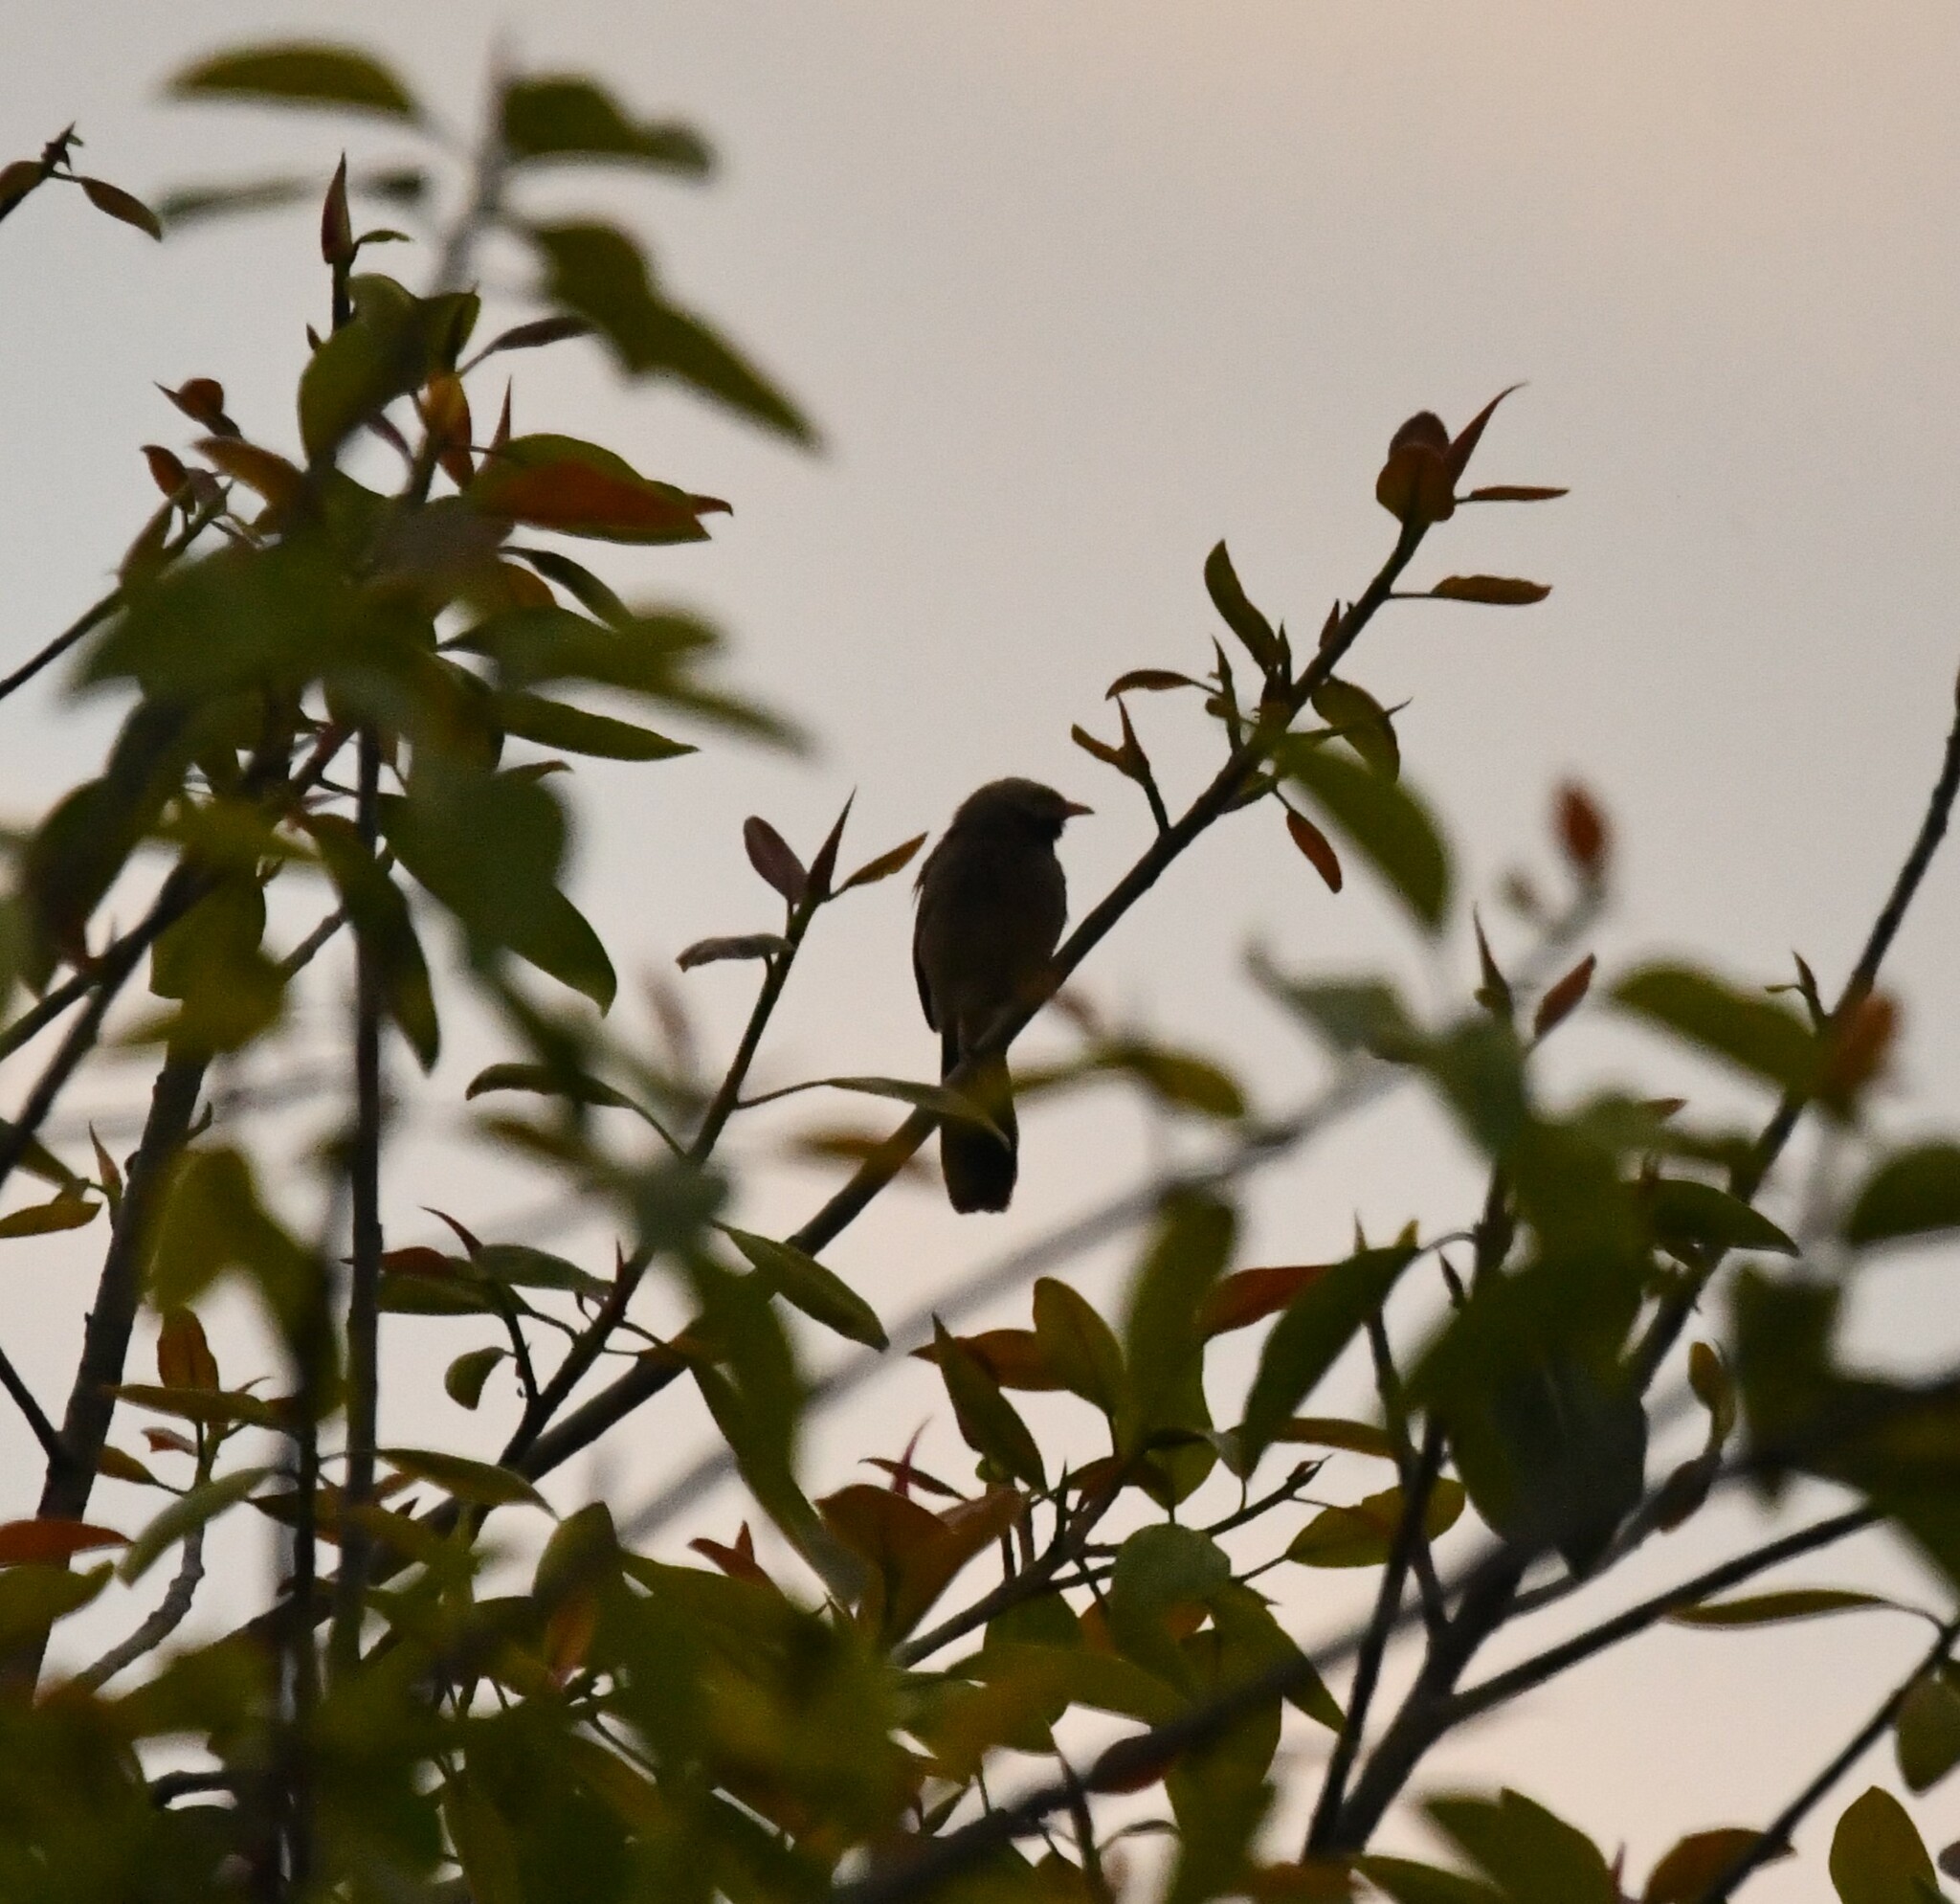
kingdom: Animalia
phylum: Chordata
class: Aves
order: Passeriformes
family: Leiothrichidae
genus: Turdoides
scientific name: Turdoides affinis
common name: Yellow-billed babbler
